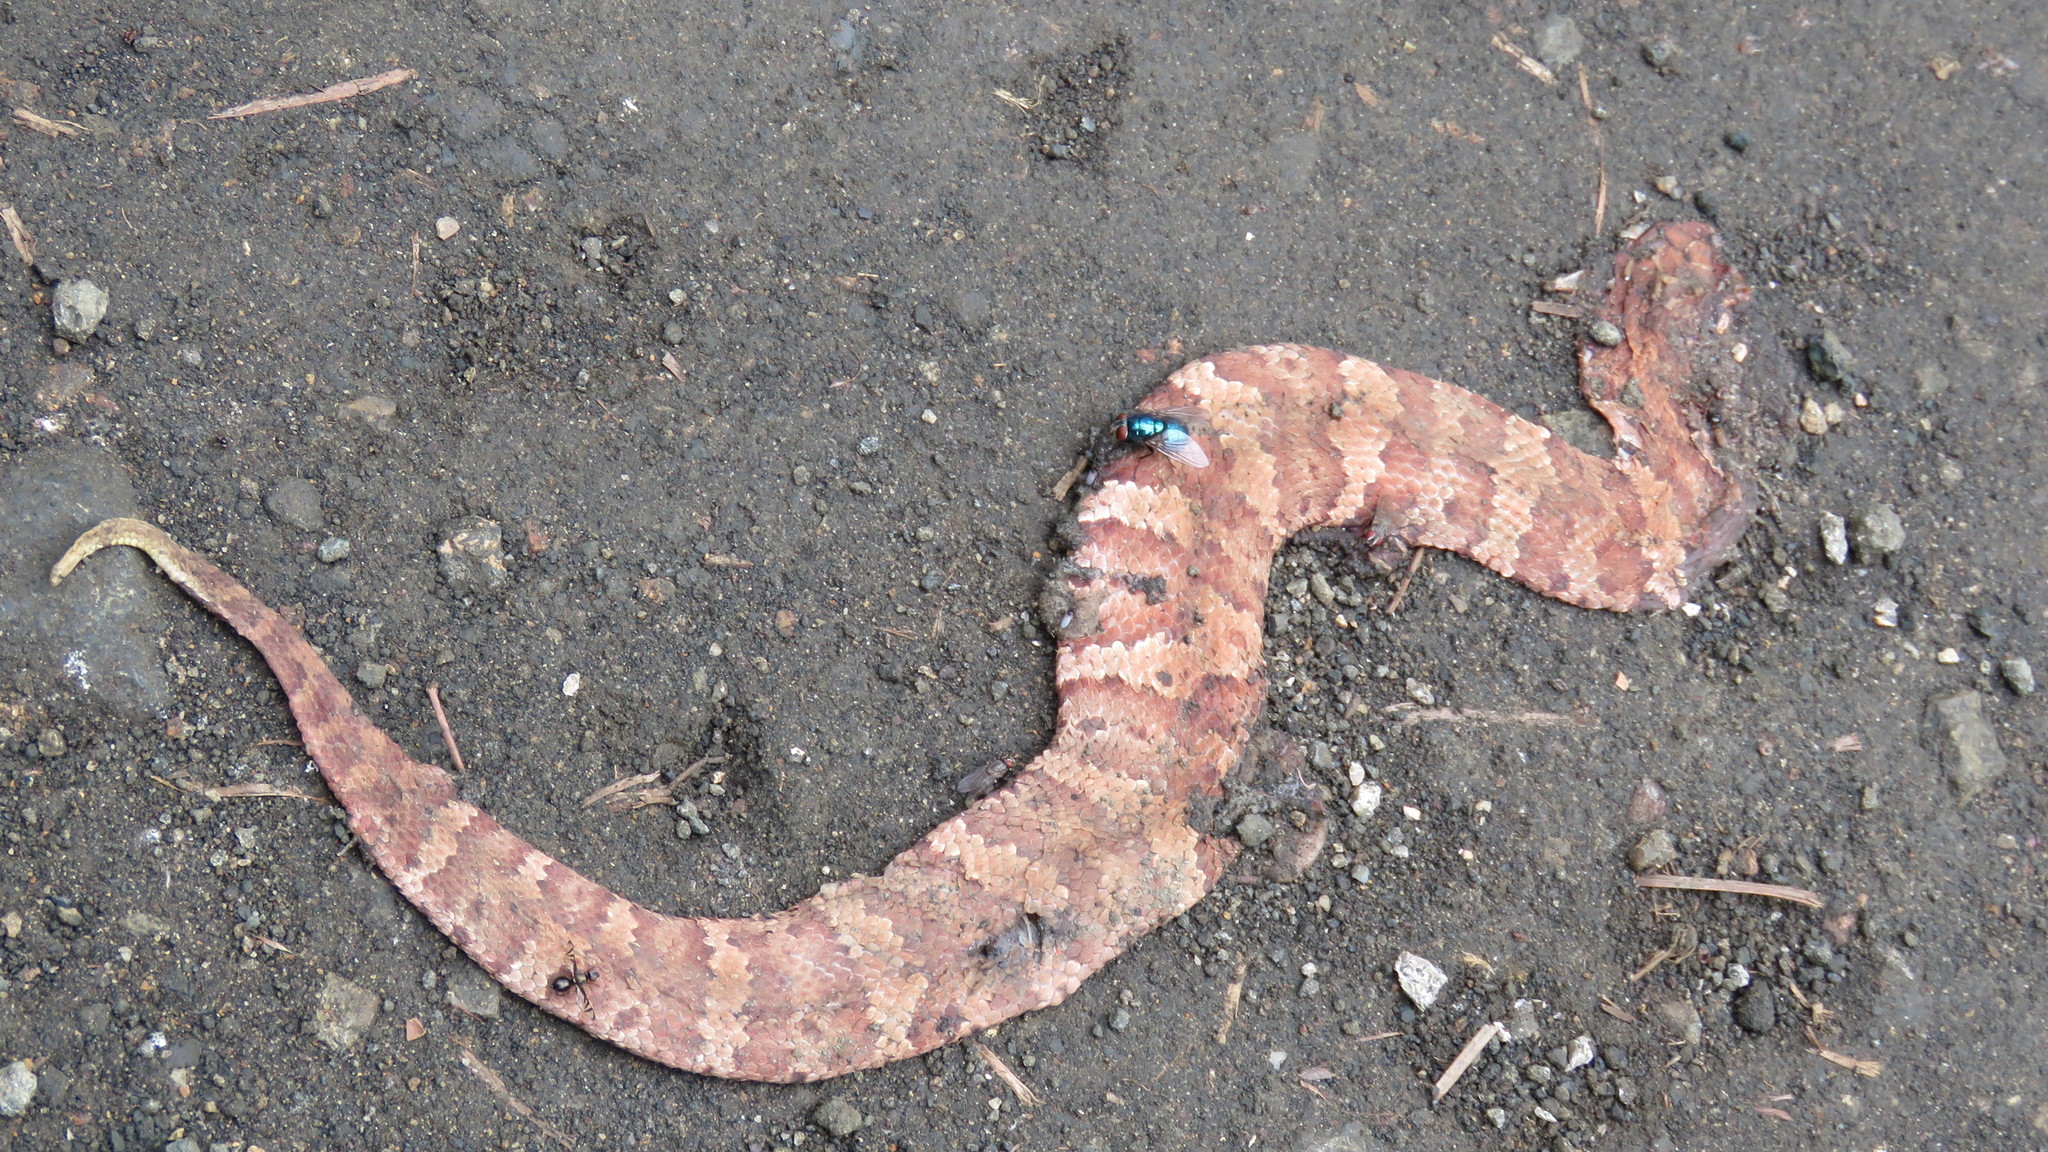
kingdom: Animalia
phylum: Chordata
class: Squamata
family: Viperidae
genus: Agkistrodon
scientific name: Agkistrodon piscivorus
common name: Cottonmouth
